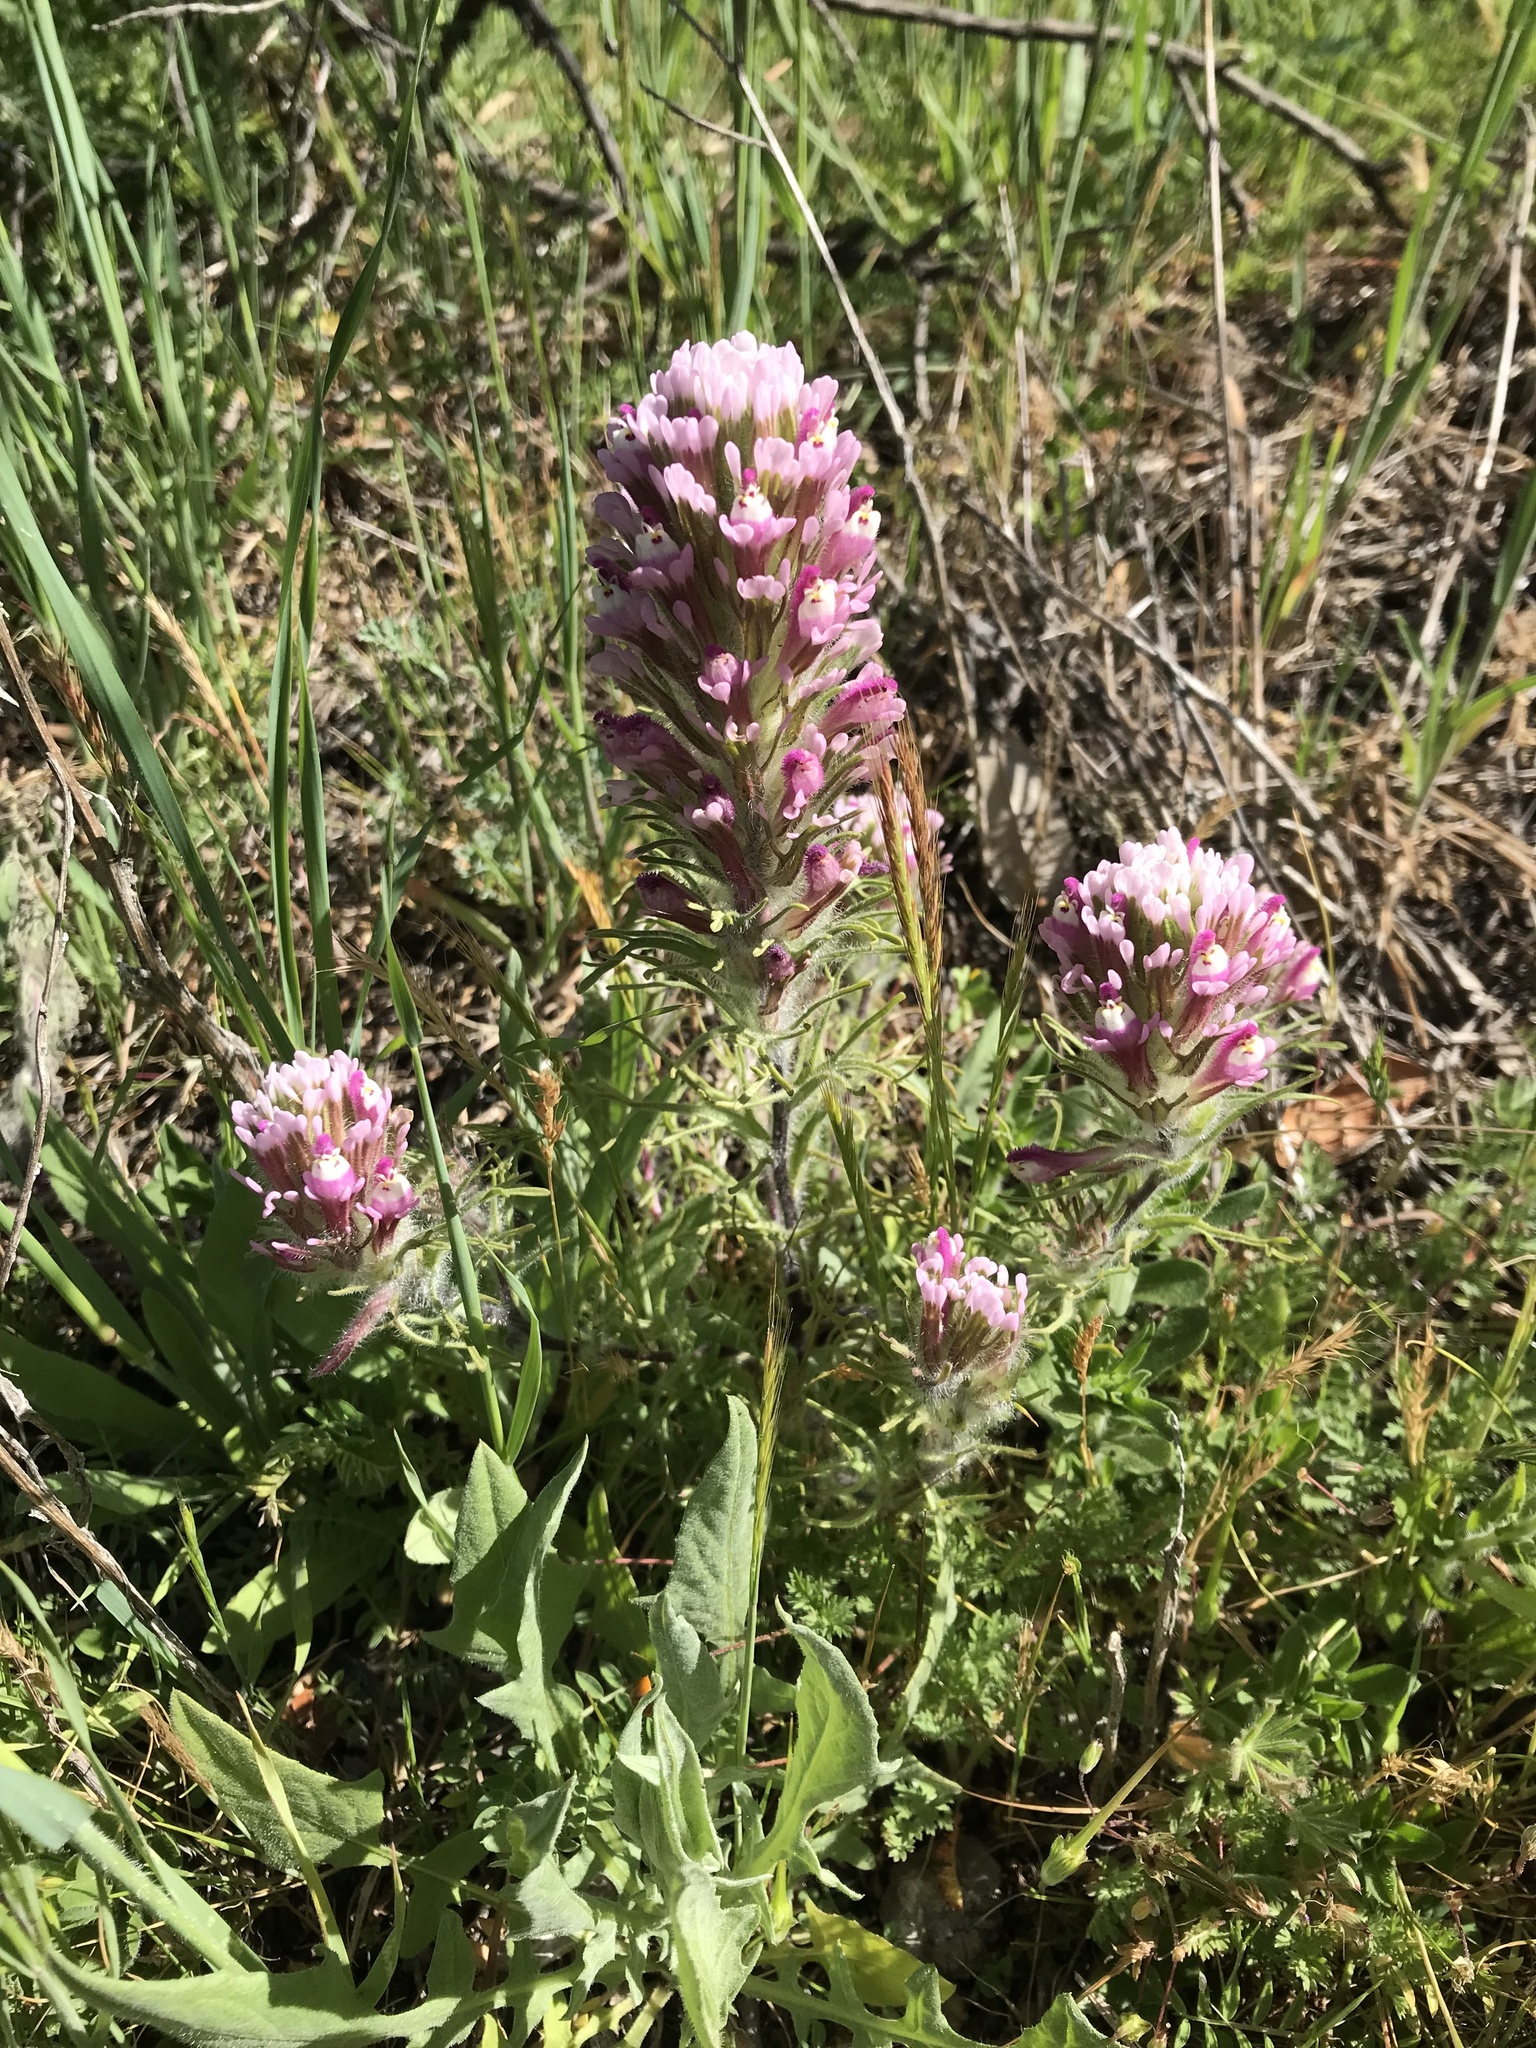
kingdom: Plantae
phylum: Tracheophyta
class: Magnoliopsida
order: Lamiales
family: Orobanchaceae
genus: Castilleja
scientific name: Castilleja exserta
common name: Purple owl-clover
